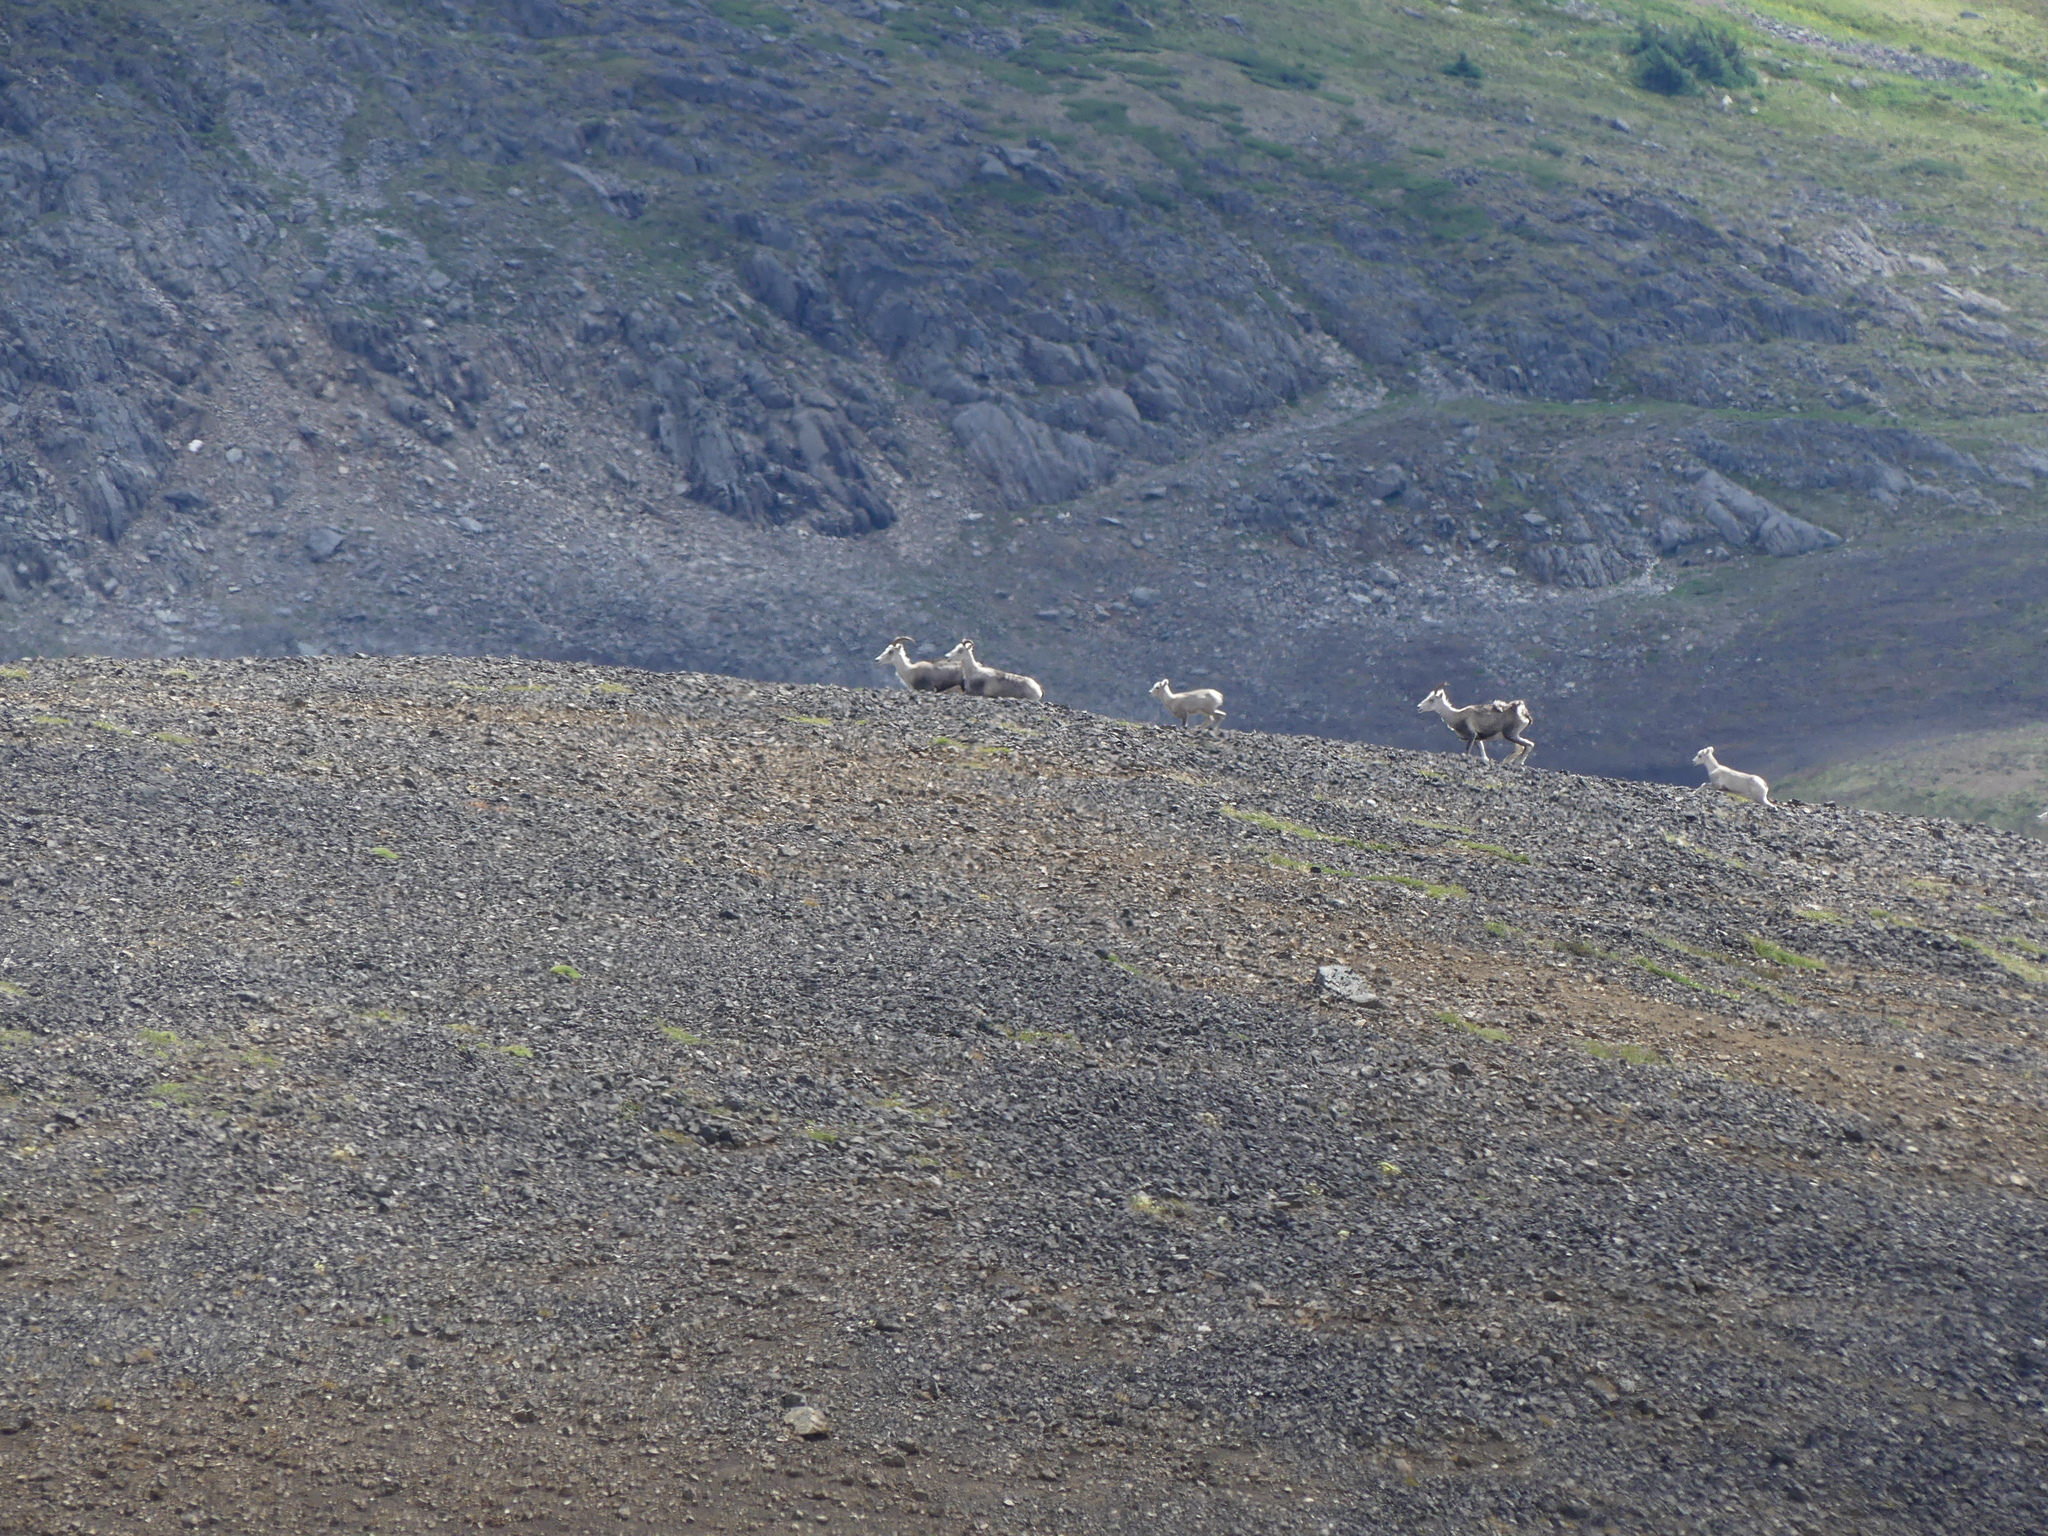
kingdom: Animalia
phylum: Chordata
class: Mammalia
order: Artiodactyla
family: Bovidae
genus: Ovis
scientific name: Ovis dalli
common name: Dall's sheep
